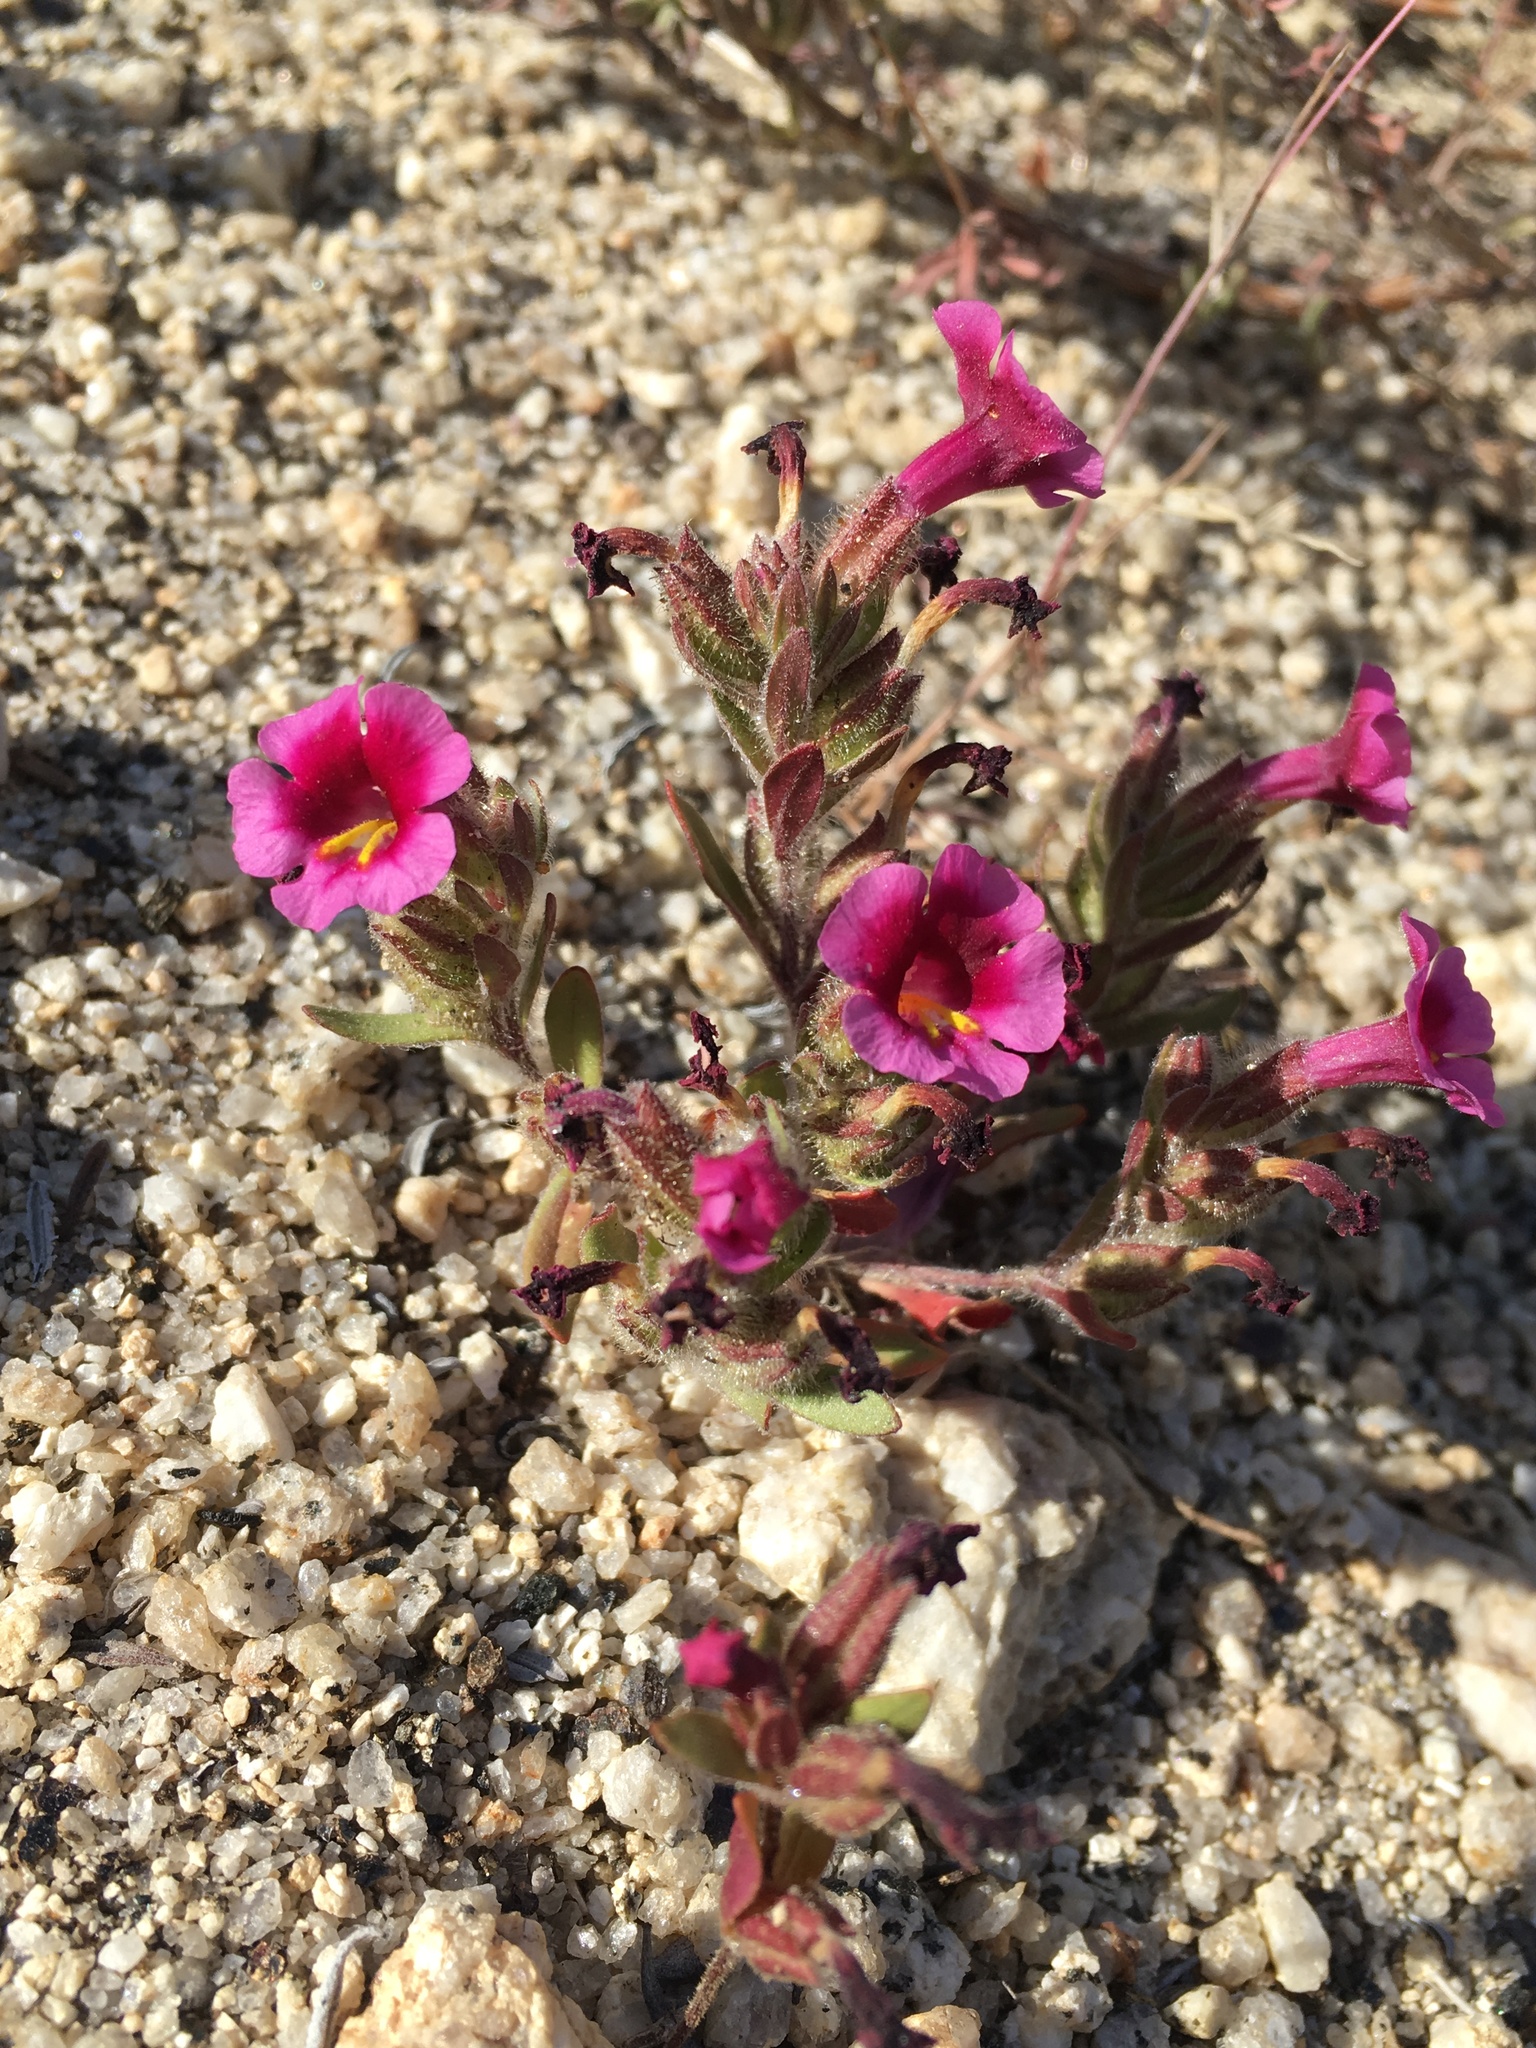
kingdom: Plantae
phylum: Tracheophyta
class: Magnoliopsida
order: Lamiales
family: Phrymaceae
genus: Diplacus
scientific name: Diplacus fremontii
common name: Fremont's monkey-flower
